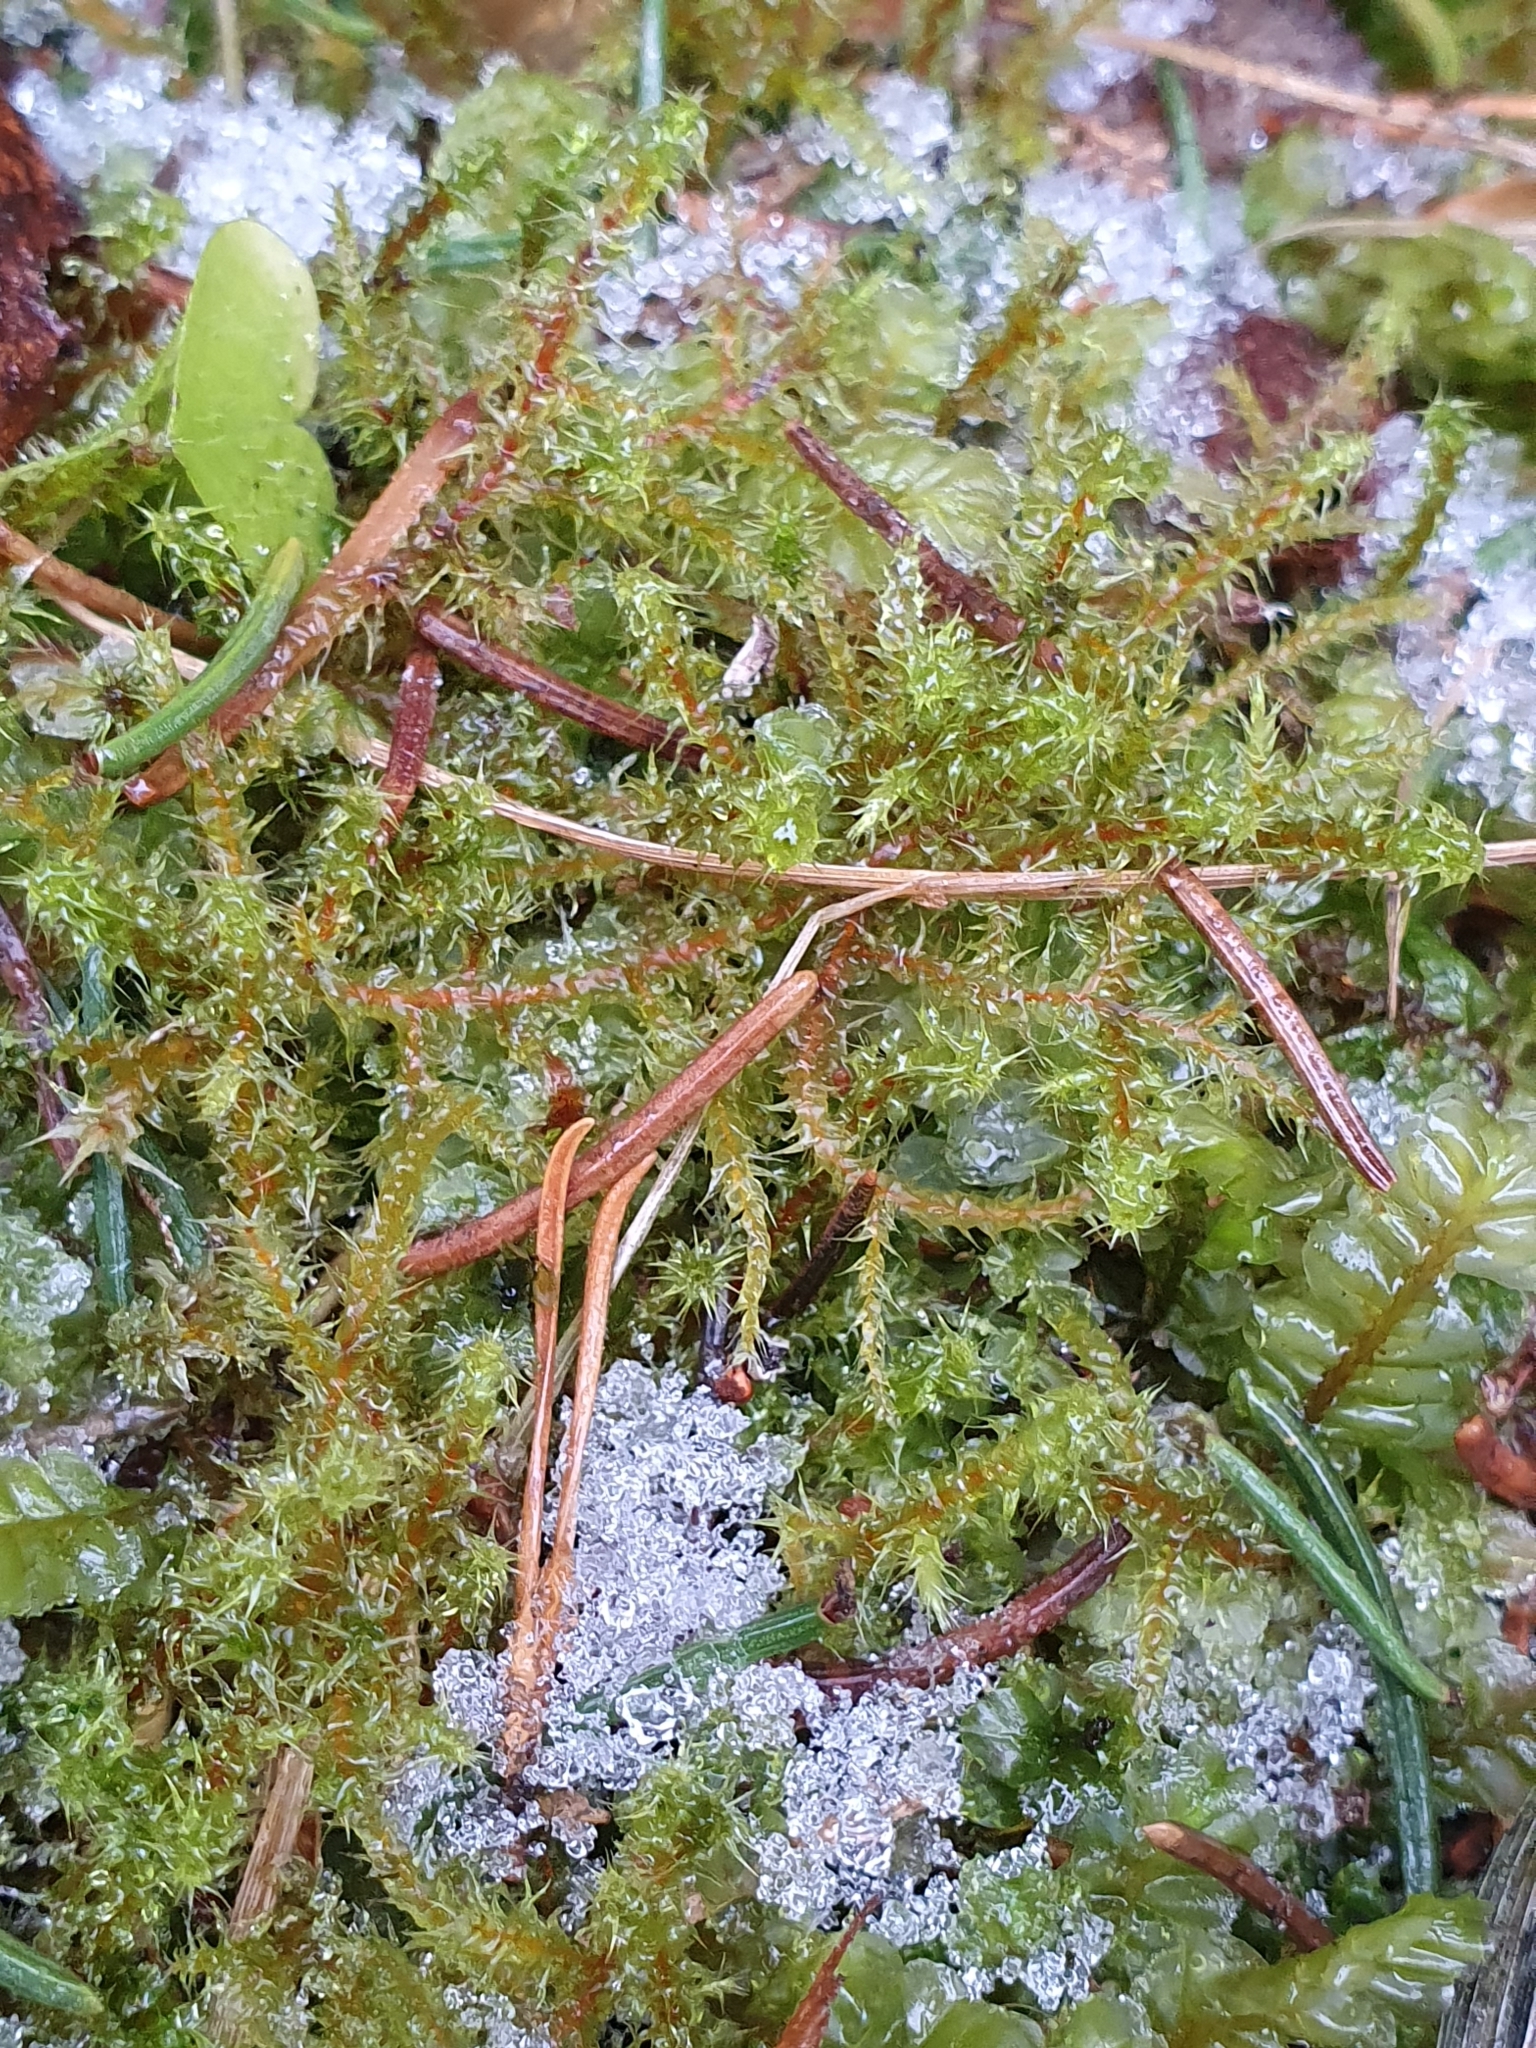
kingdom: Plantae
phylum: Bryophyta
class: Bryopsida
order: Hypnales
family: Hylocomiaceae
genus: Rhytidiadelphus
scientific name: Rhytidiadelphus squarrosus
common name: Springy turf-moss
